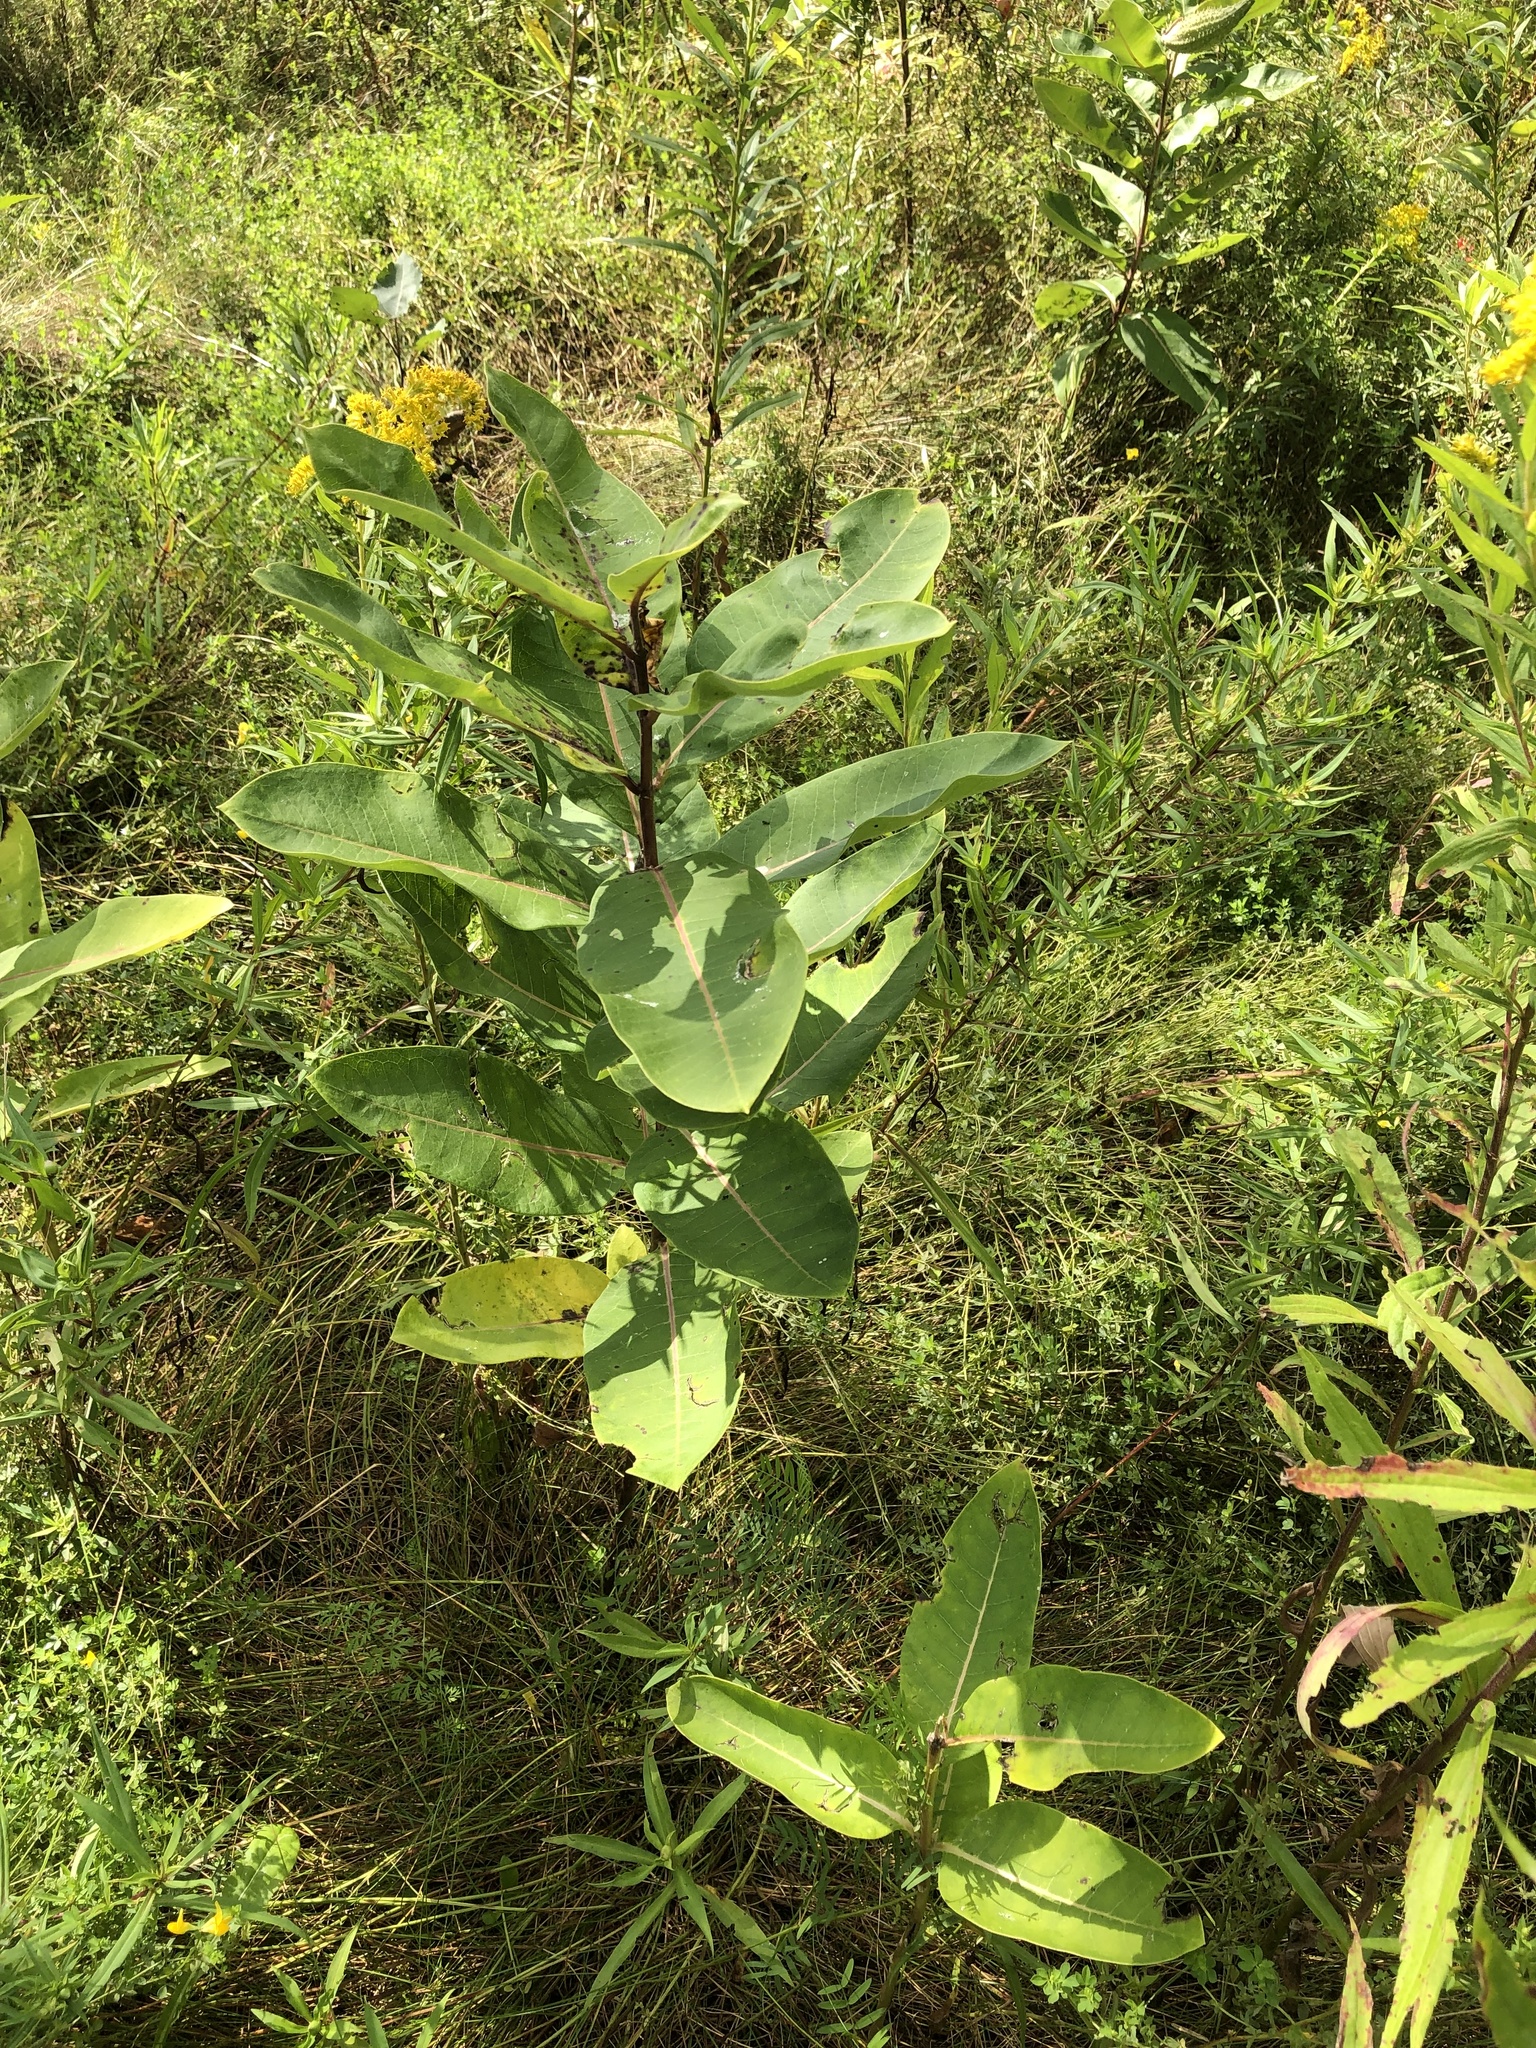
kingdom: Plantae
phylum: Tracheophyta
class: Magnoliopsida
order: Gentianales
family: Apocynaceae
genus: Asclepias
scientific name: Asclepias syriaca
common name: Common milkweed
